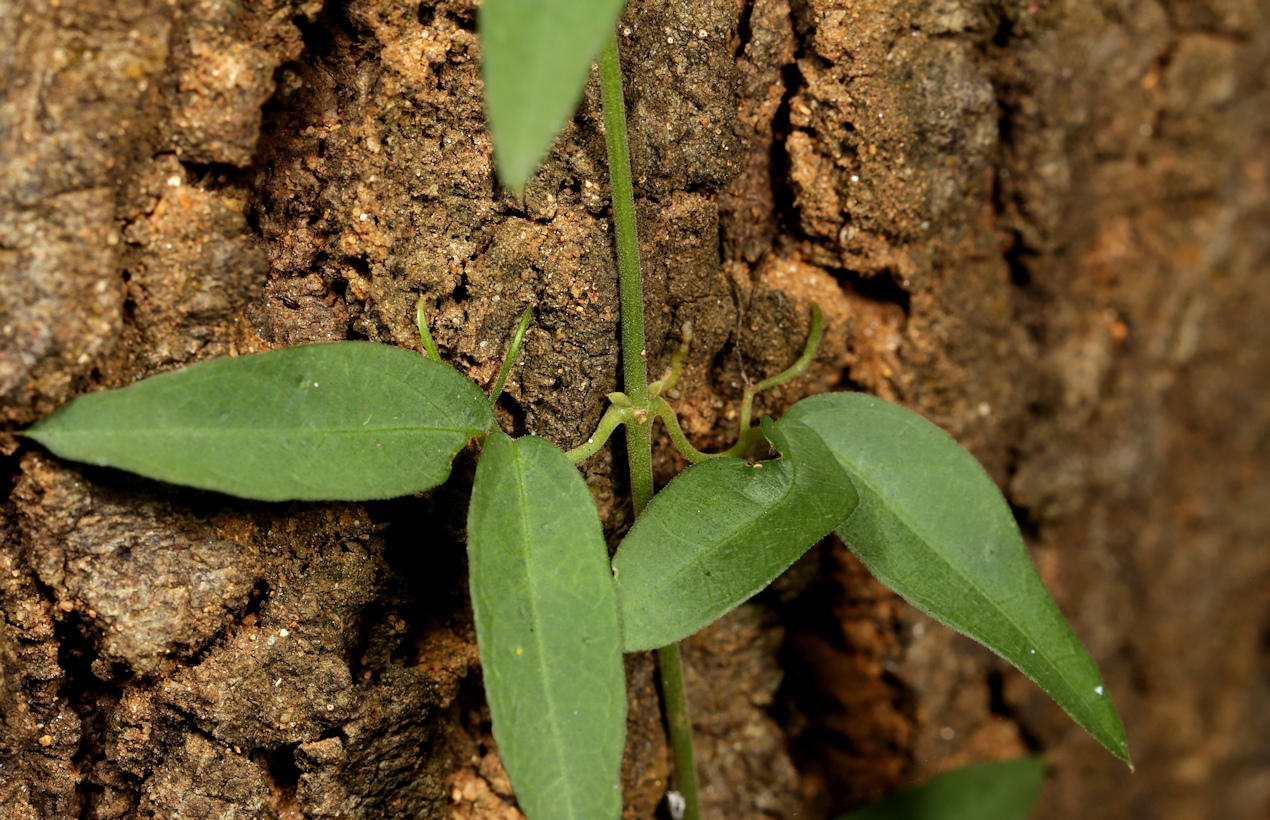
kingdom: Plantae
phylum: Tracheophyta
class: Magnoliopsida
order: Lamiales
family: Bignoniaceae
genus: Dolichandra
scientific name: Dolichandra unguis-cati
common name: Catclaw vine
